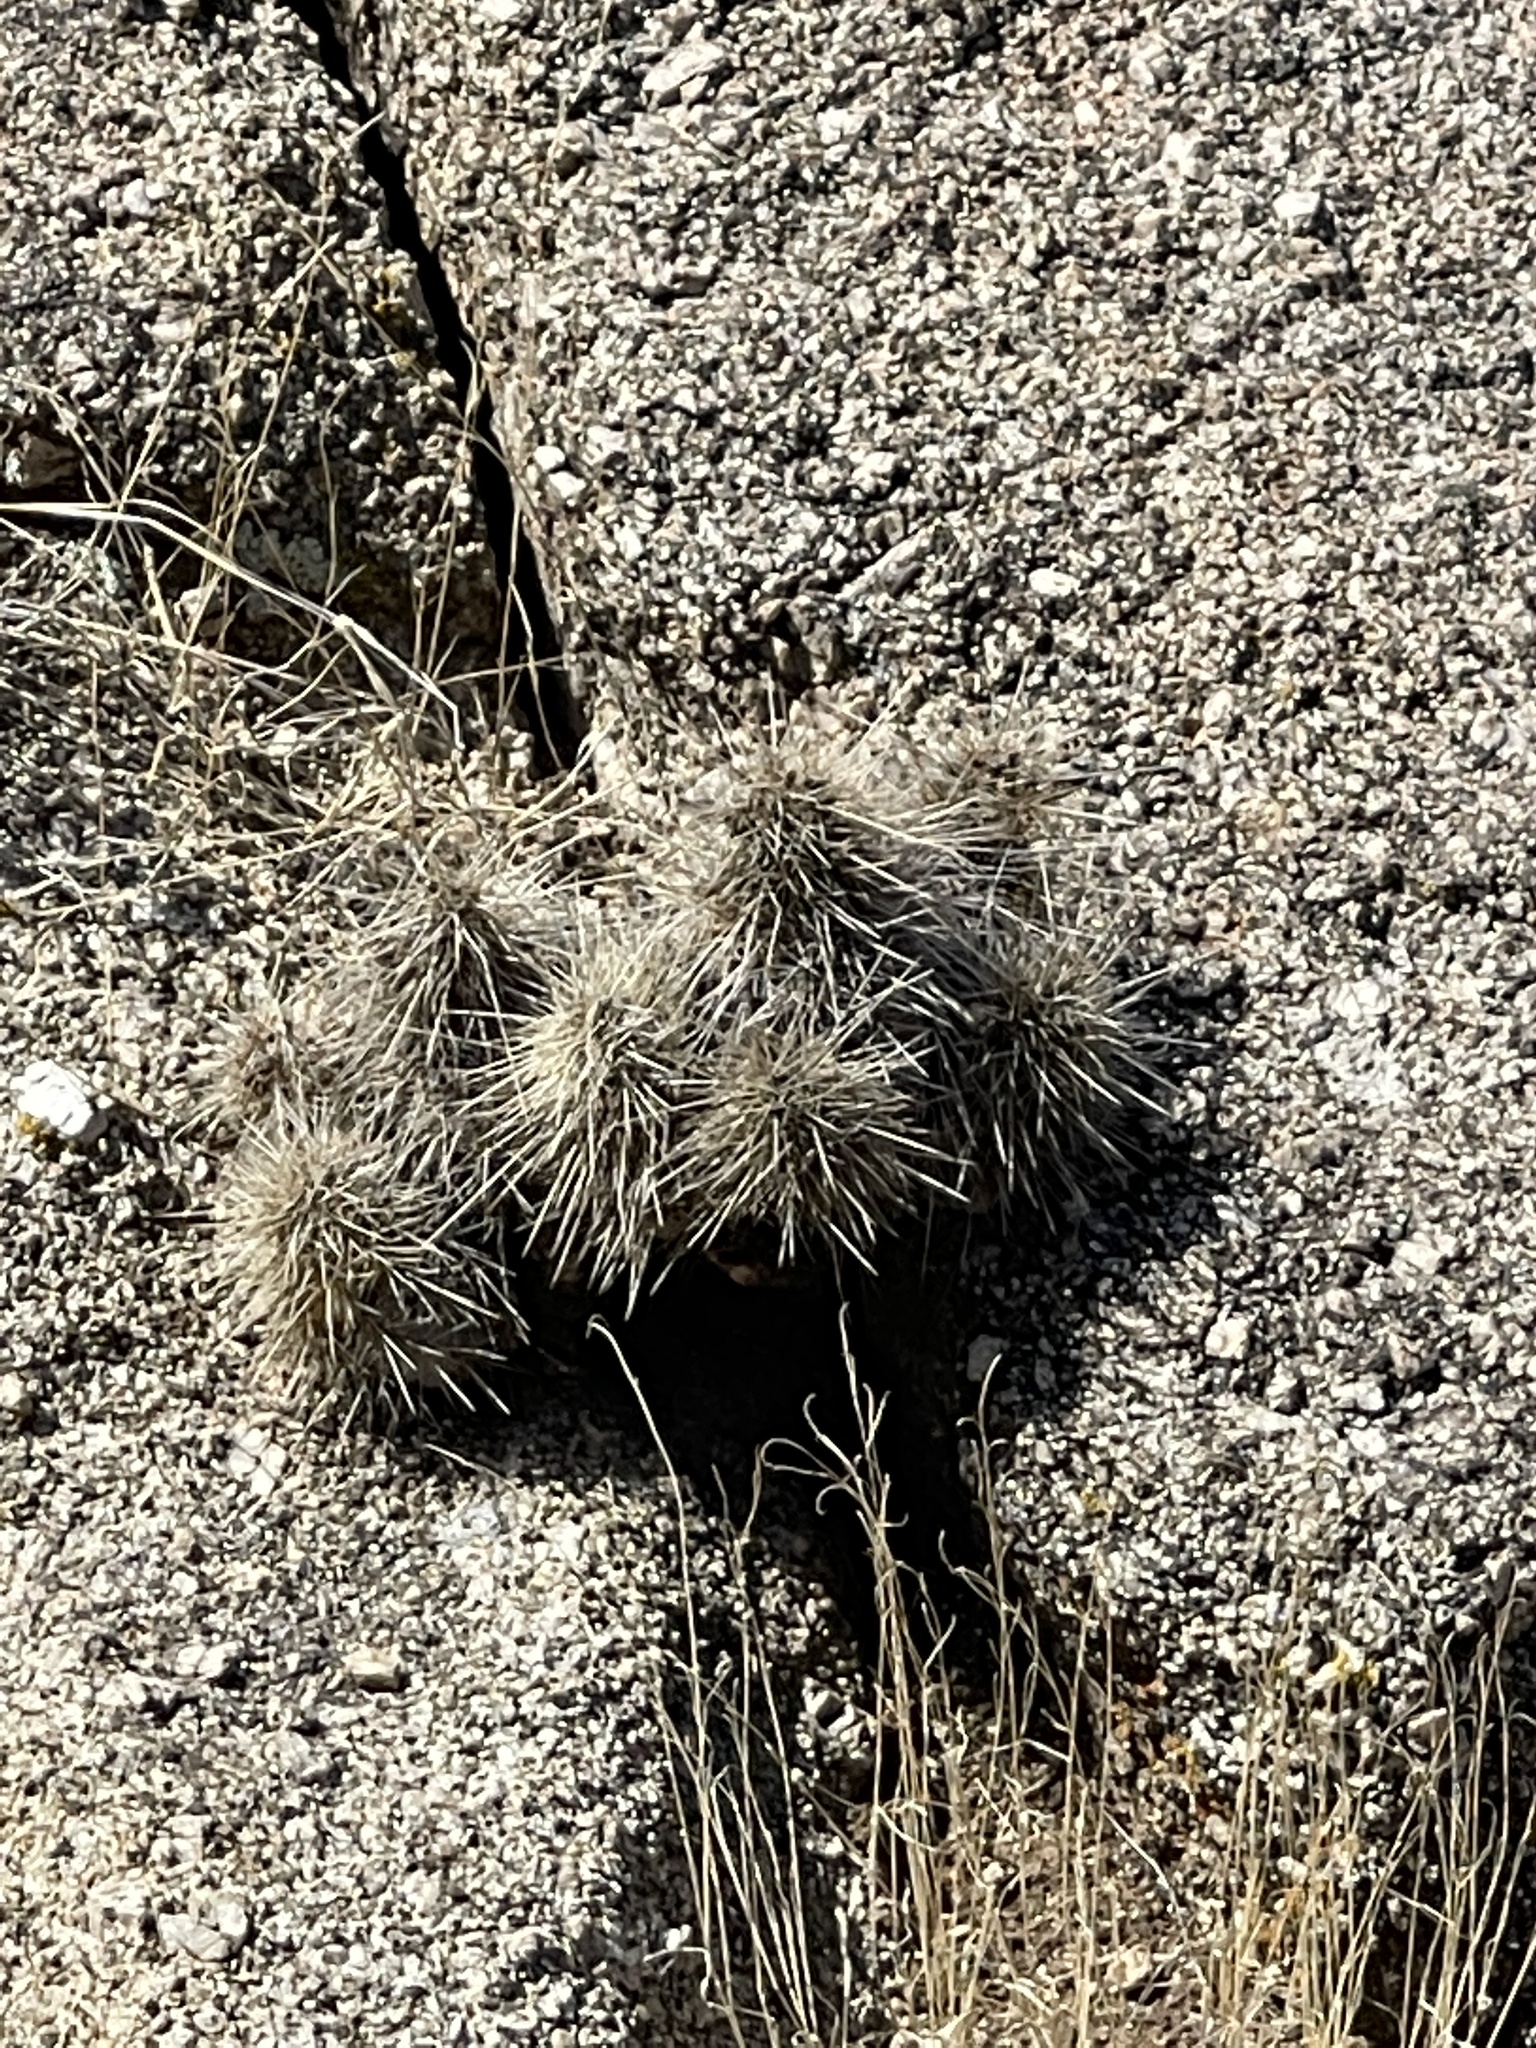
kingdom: Plantae
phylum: Tracheophyta
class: Magnoliopsida
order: Caryophyllales
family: Cactaceae
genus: Echinocereus
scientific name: Echinocereus coccineus
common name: Scarlet hedgehog cactus
